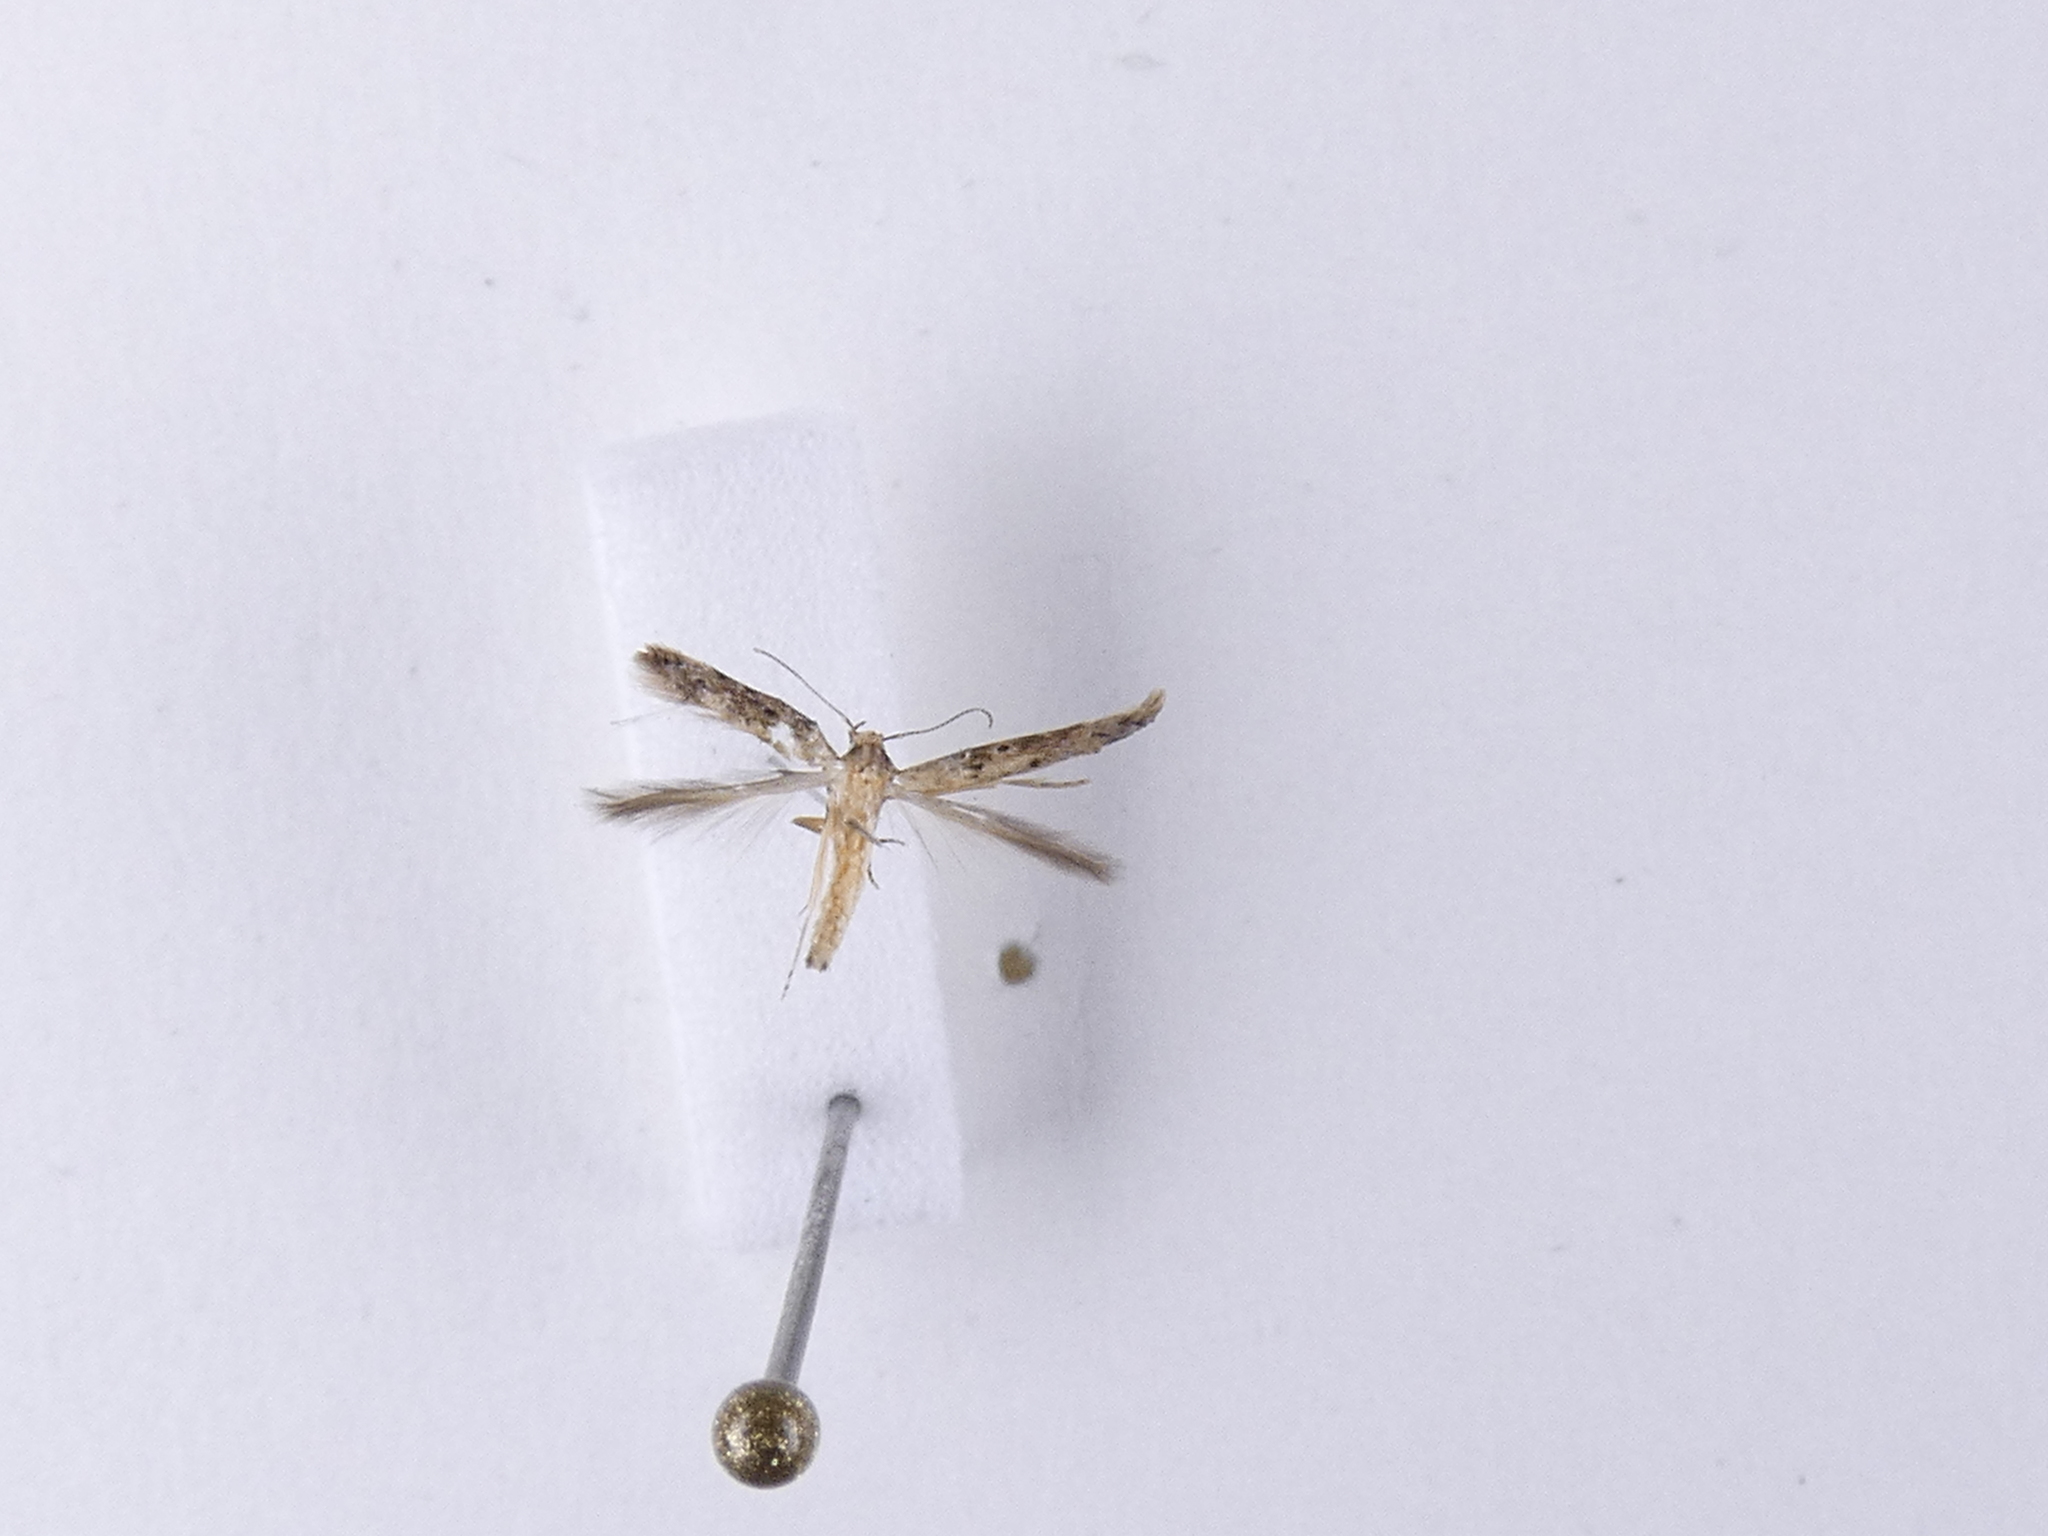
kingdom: Animalia
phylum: Arthropoda
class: Insecta
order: Lepidoptera
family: Elachistidae
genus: Microcolona
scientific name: Microcolona limodes
